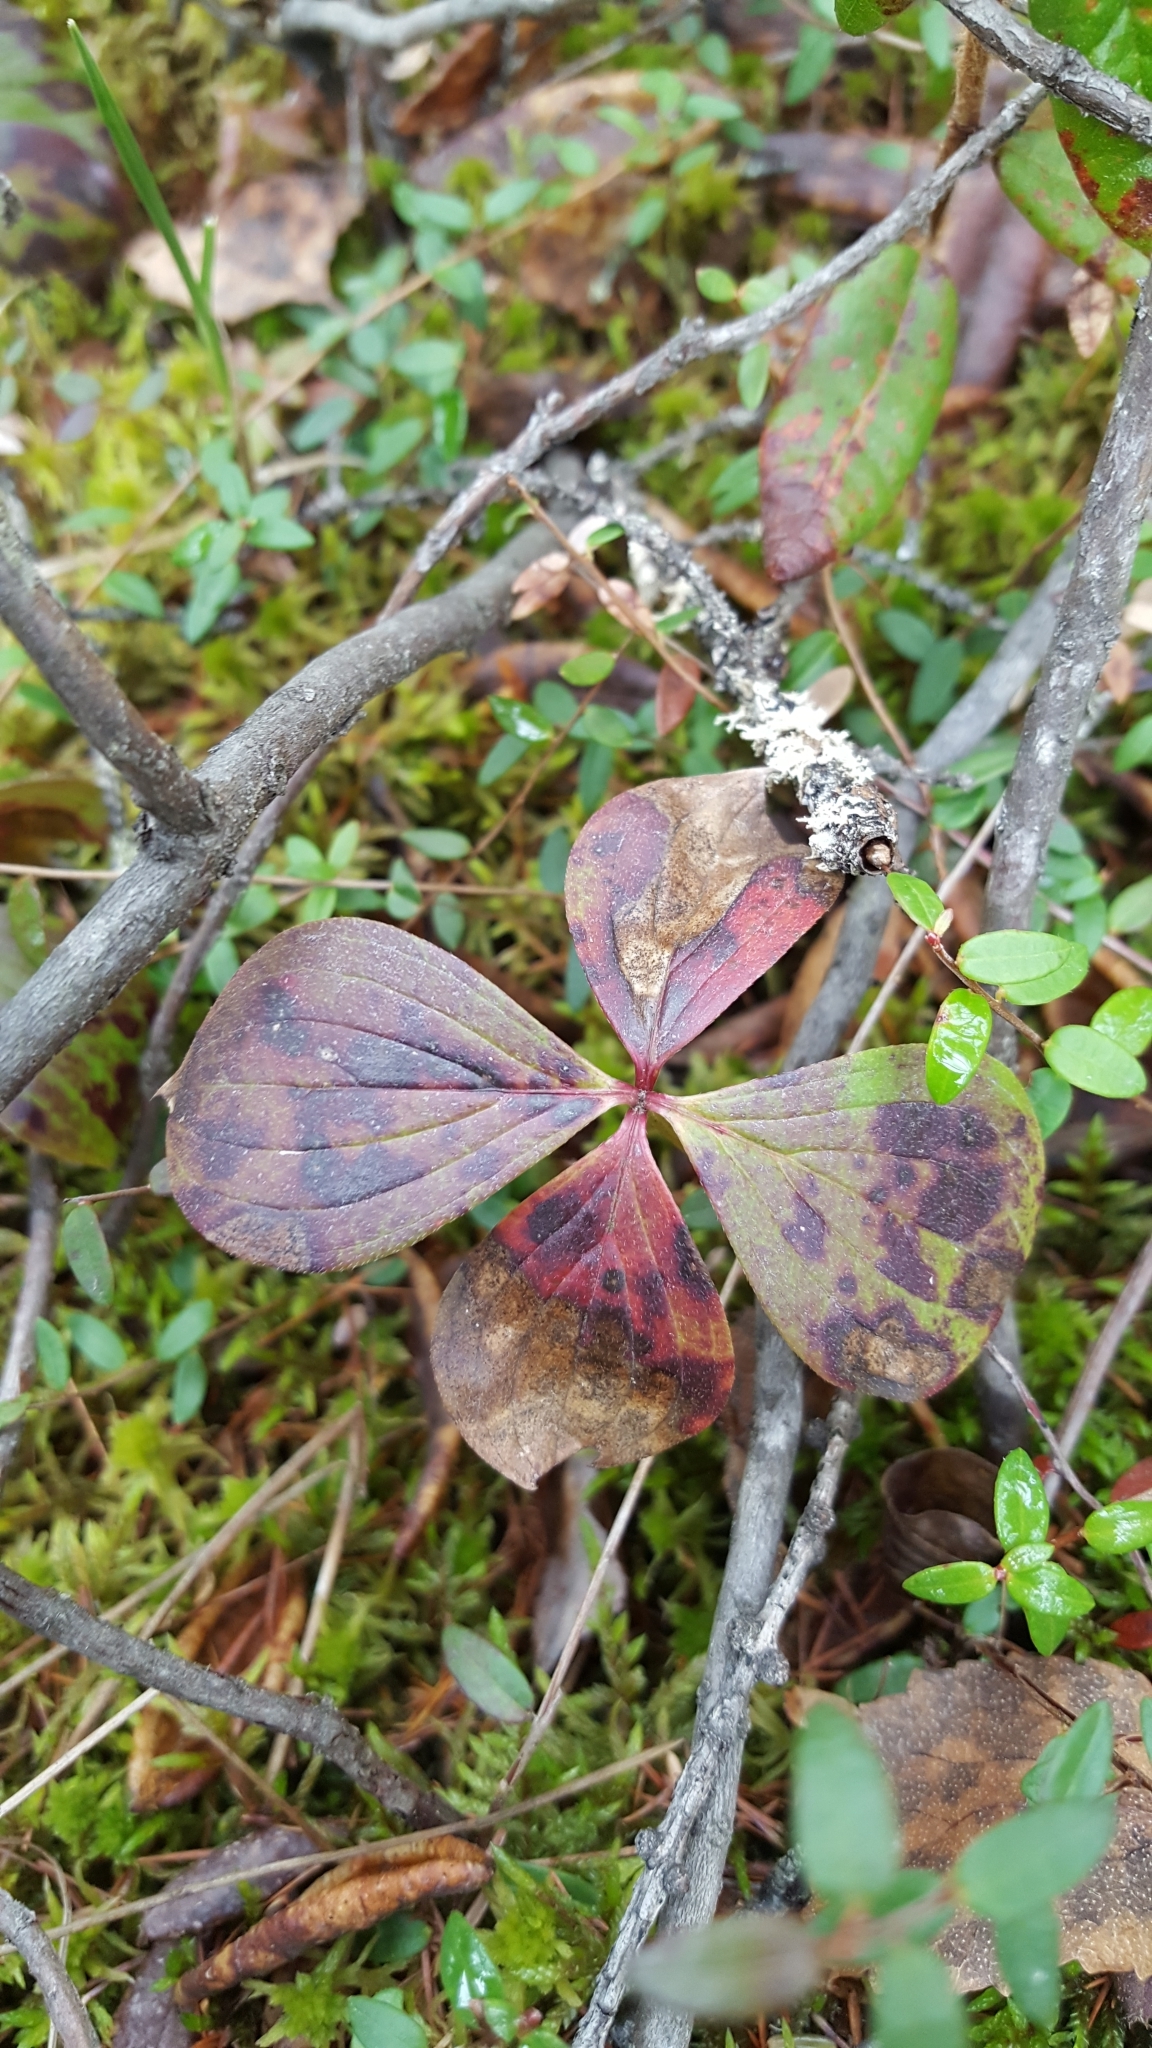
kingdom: Plantae
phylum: Tracheophyta
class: Magnoliopsida
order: Cornales
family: Cornaceae
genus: Cornus
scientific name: Cornus canadensis
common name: Creeping dogwood
